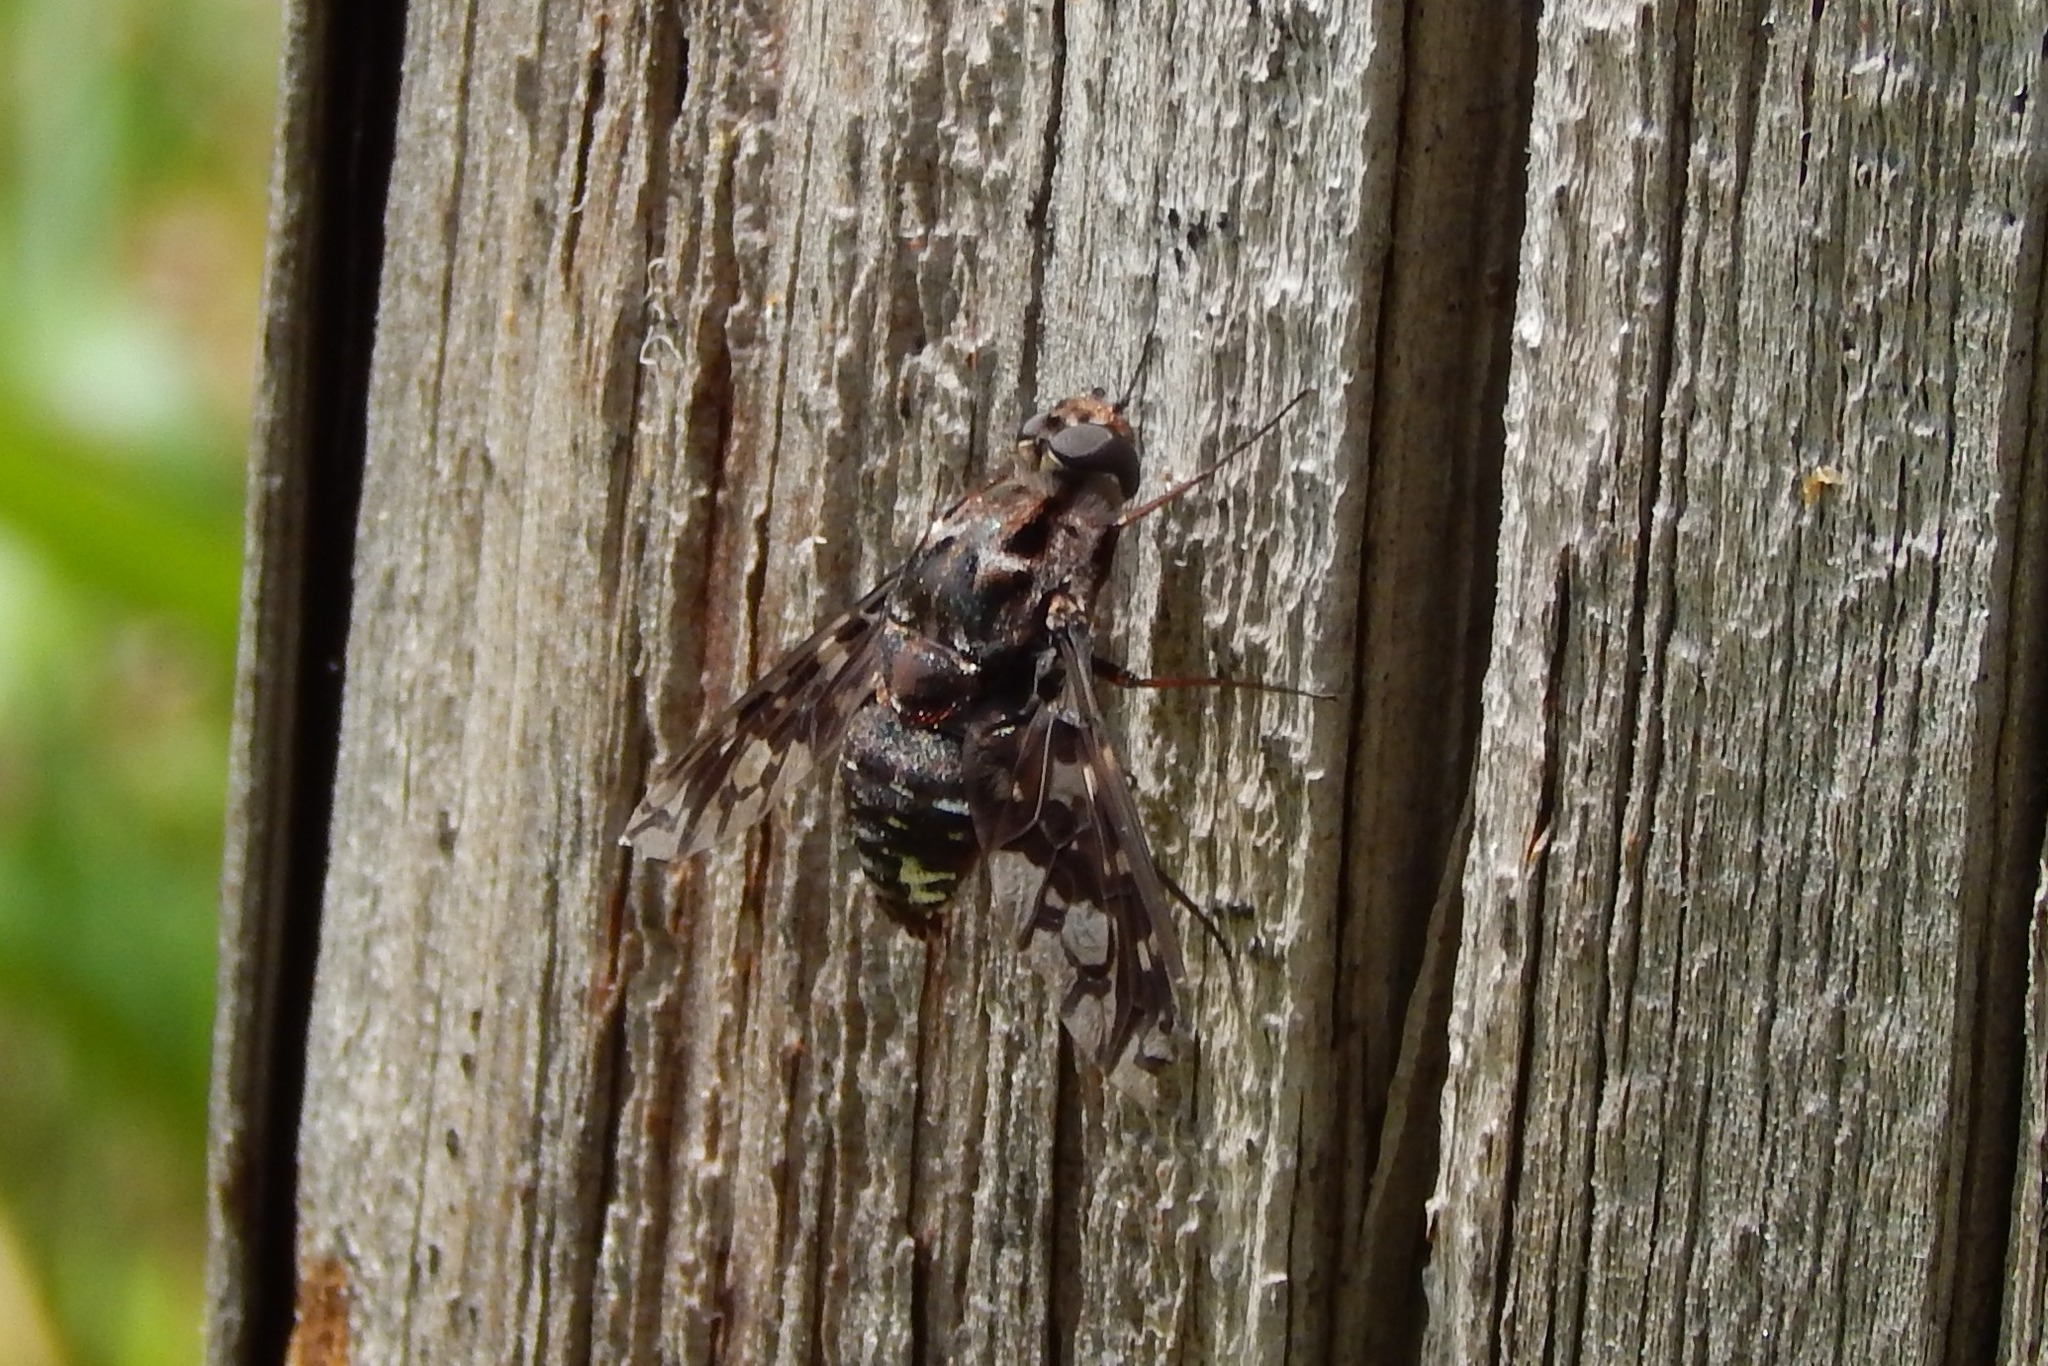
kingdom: Animalia
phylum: Arthropoda
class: Insecta
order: Diptera
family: Bombyliidae
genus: Xenox
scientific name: Xenox tigrinus
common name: Tiger bee fly
